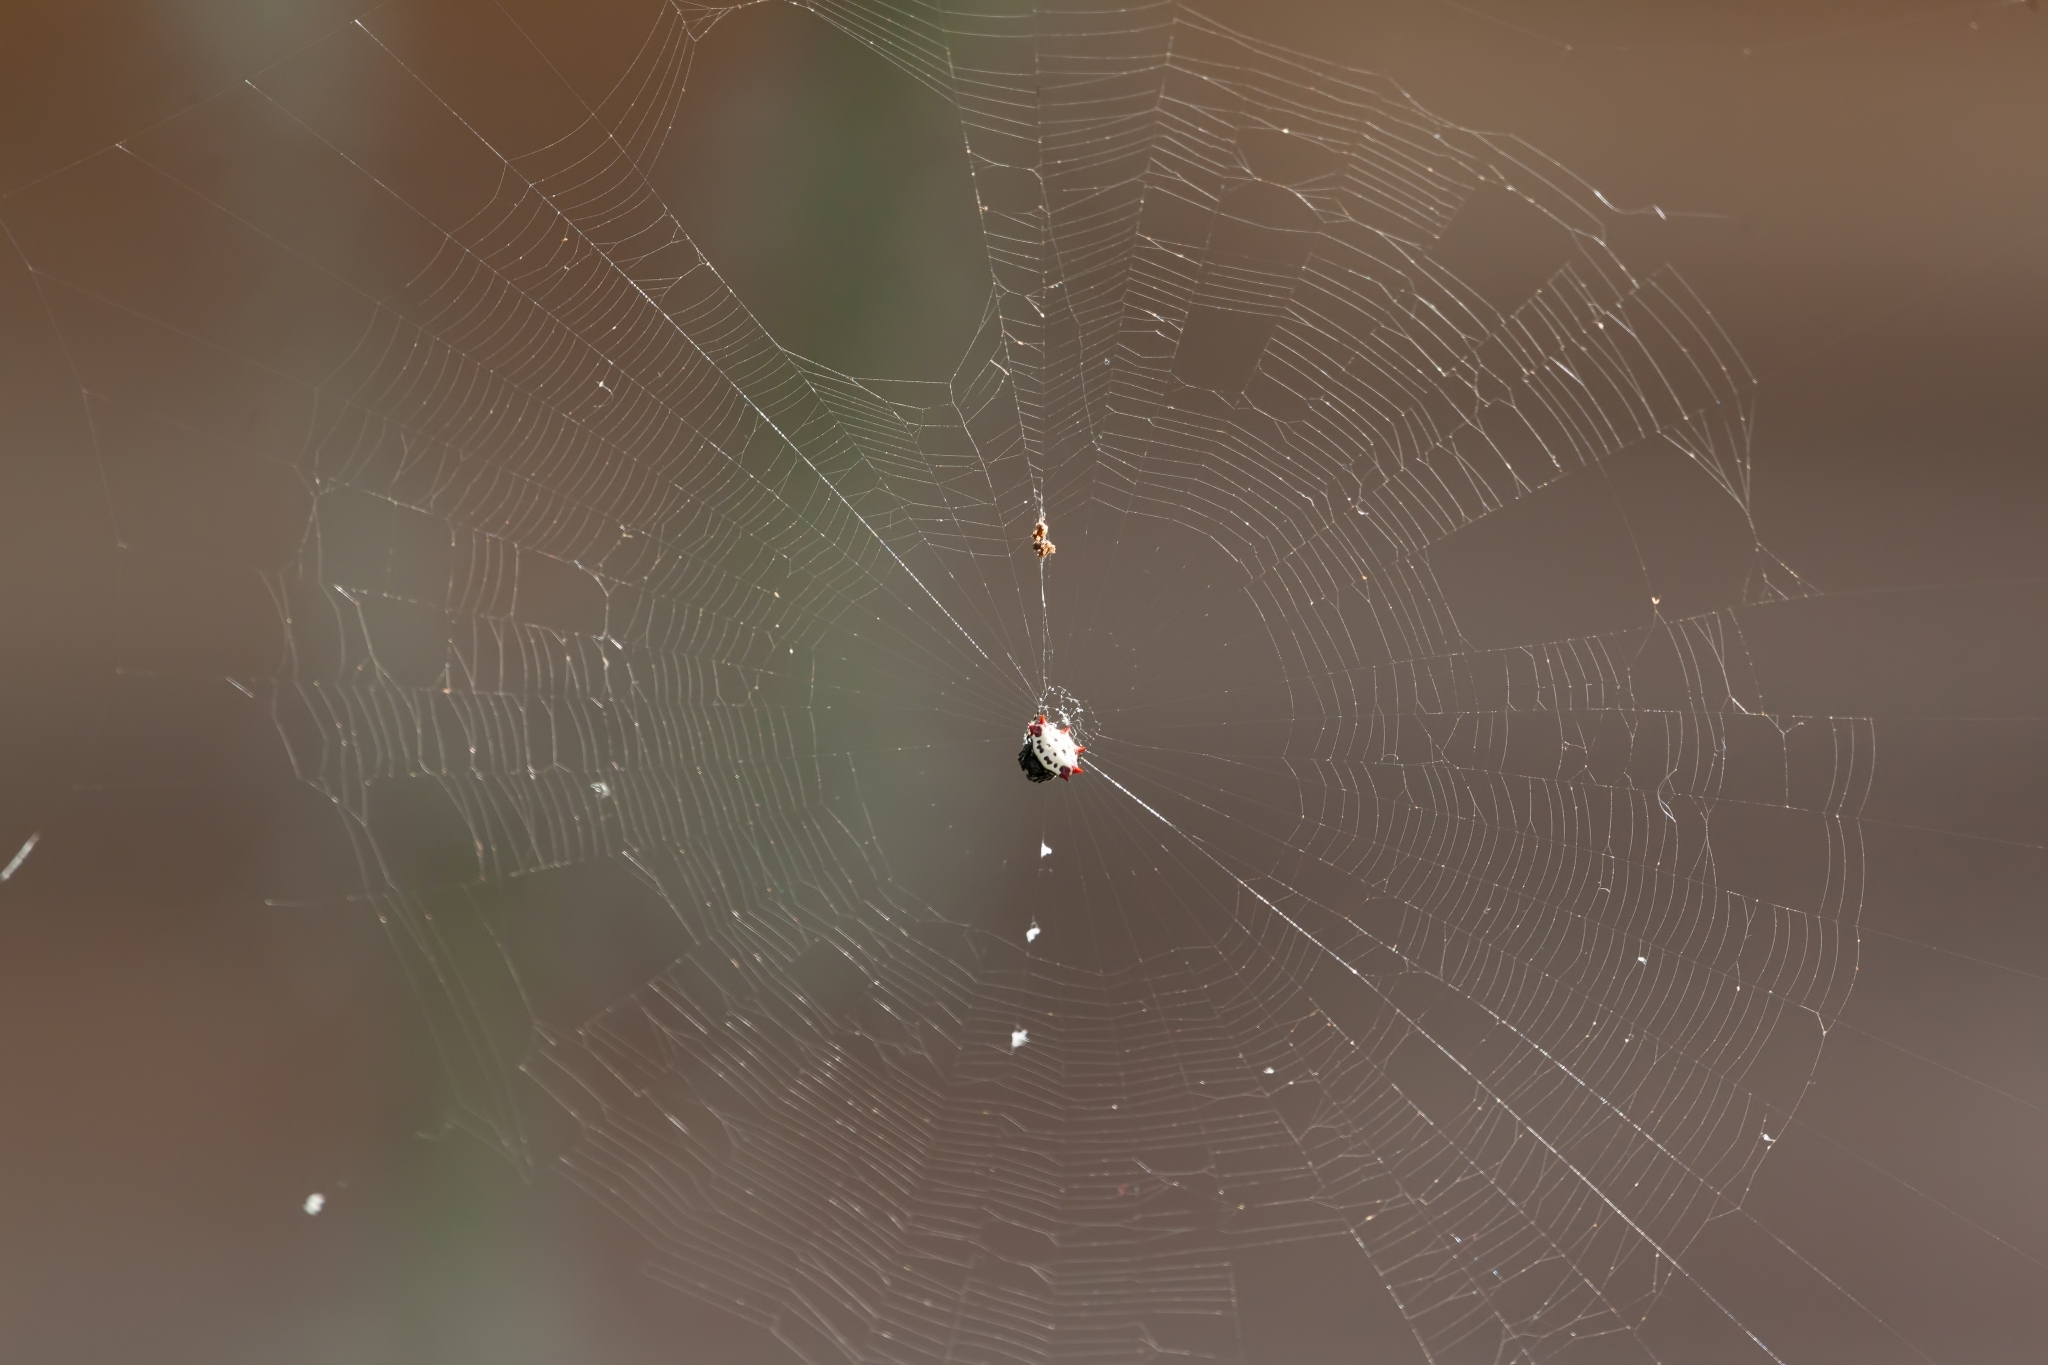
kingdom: Animalia
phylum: Arthropoda
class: Arachnida
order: Araneae
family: Araneidae
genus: Gasteracantha
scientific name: Gasteracantha cancriformis
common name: Orb weavers
